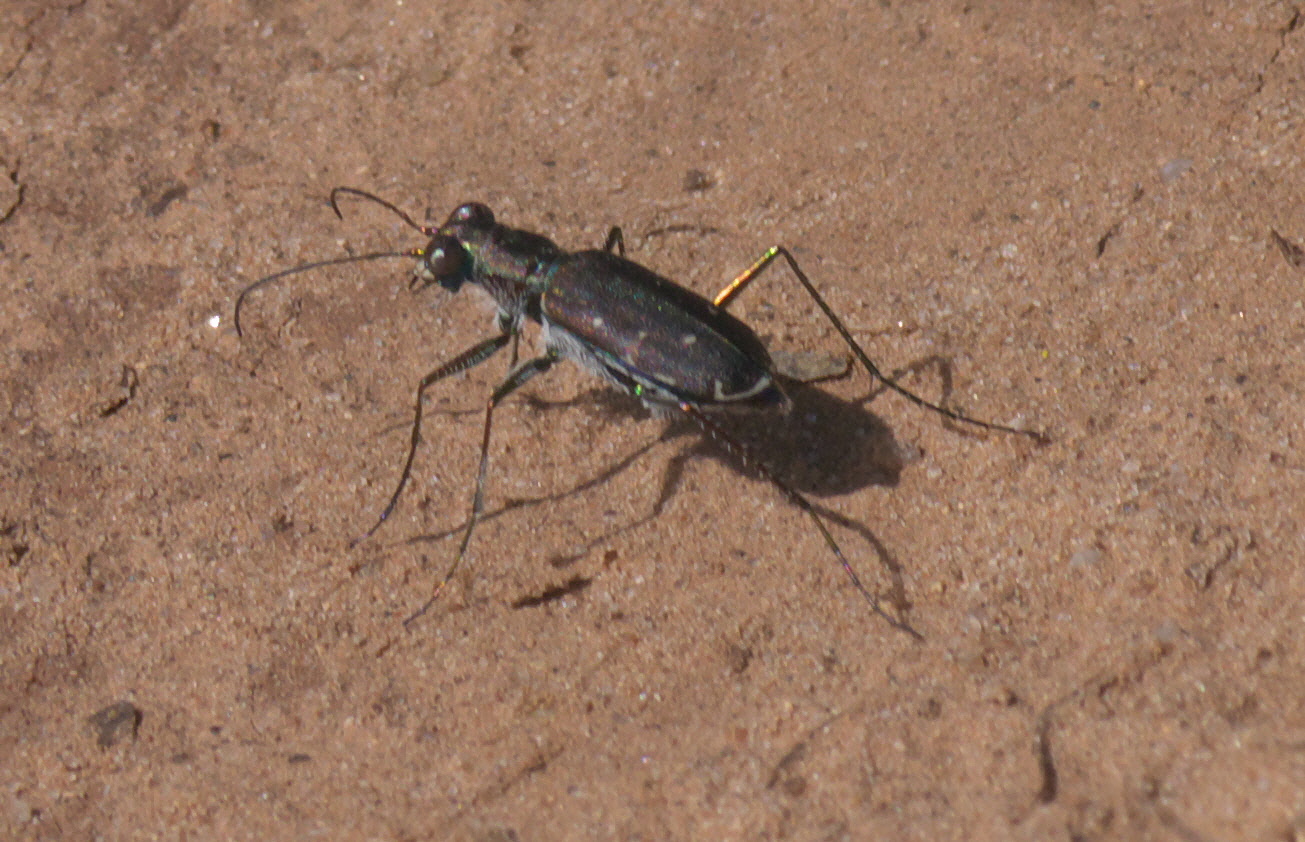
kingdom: Animalia
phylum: Arthropoda
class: Insecta
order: Coleoptera
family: Carabidae
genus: Cicindela
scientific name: Cicindela punctulata
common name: Punctured tiger beetle
